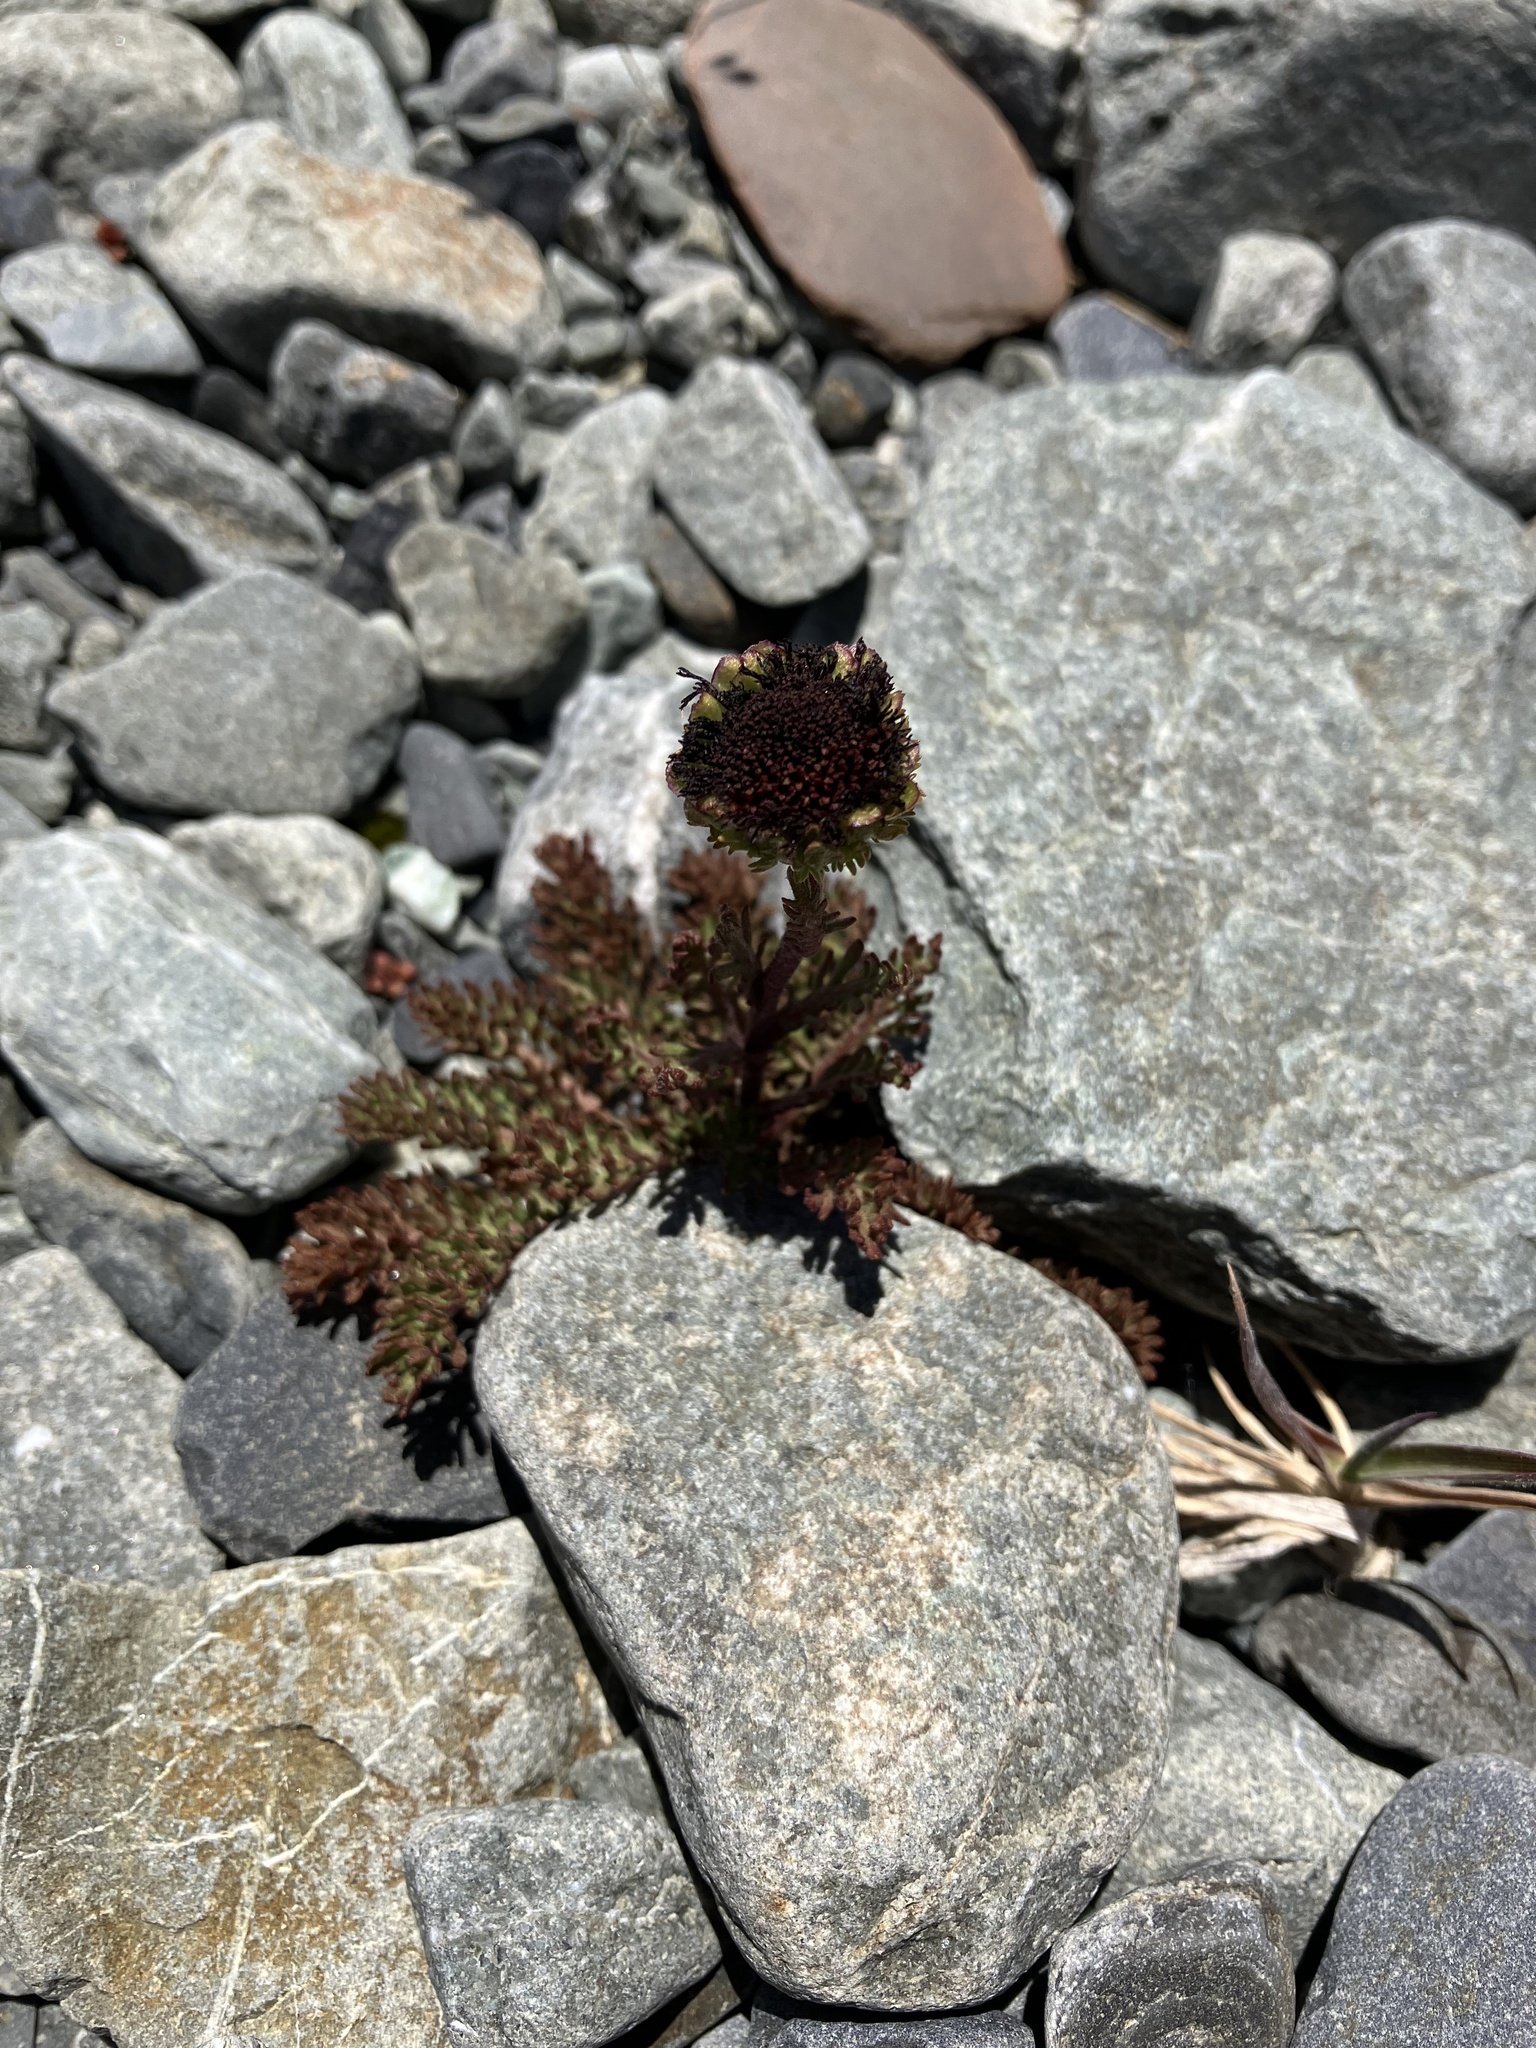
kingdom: Plantae
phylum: Tracheophyta
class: Magnoliopsida
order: Asterales
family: Asteraceae
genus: Leptinella
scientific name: Leptinella atrata
